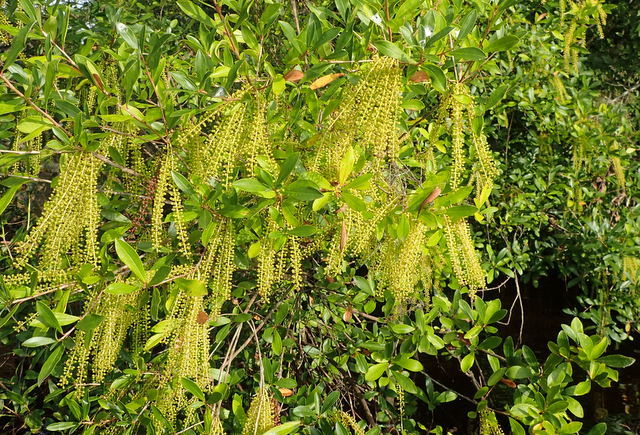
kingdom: Plantae
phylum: Tracheophyta
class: Magnoliopsida
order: Ericales
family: Cyrillaceae
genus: Cyrilla
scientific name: Cyrilla racemiflora
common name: Black titi
